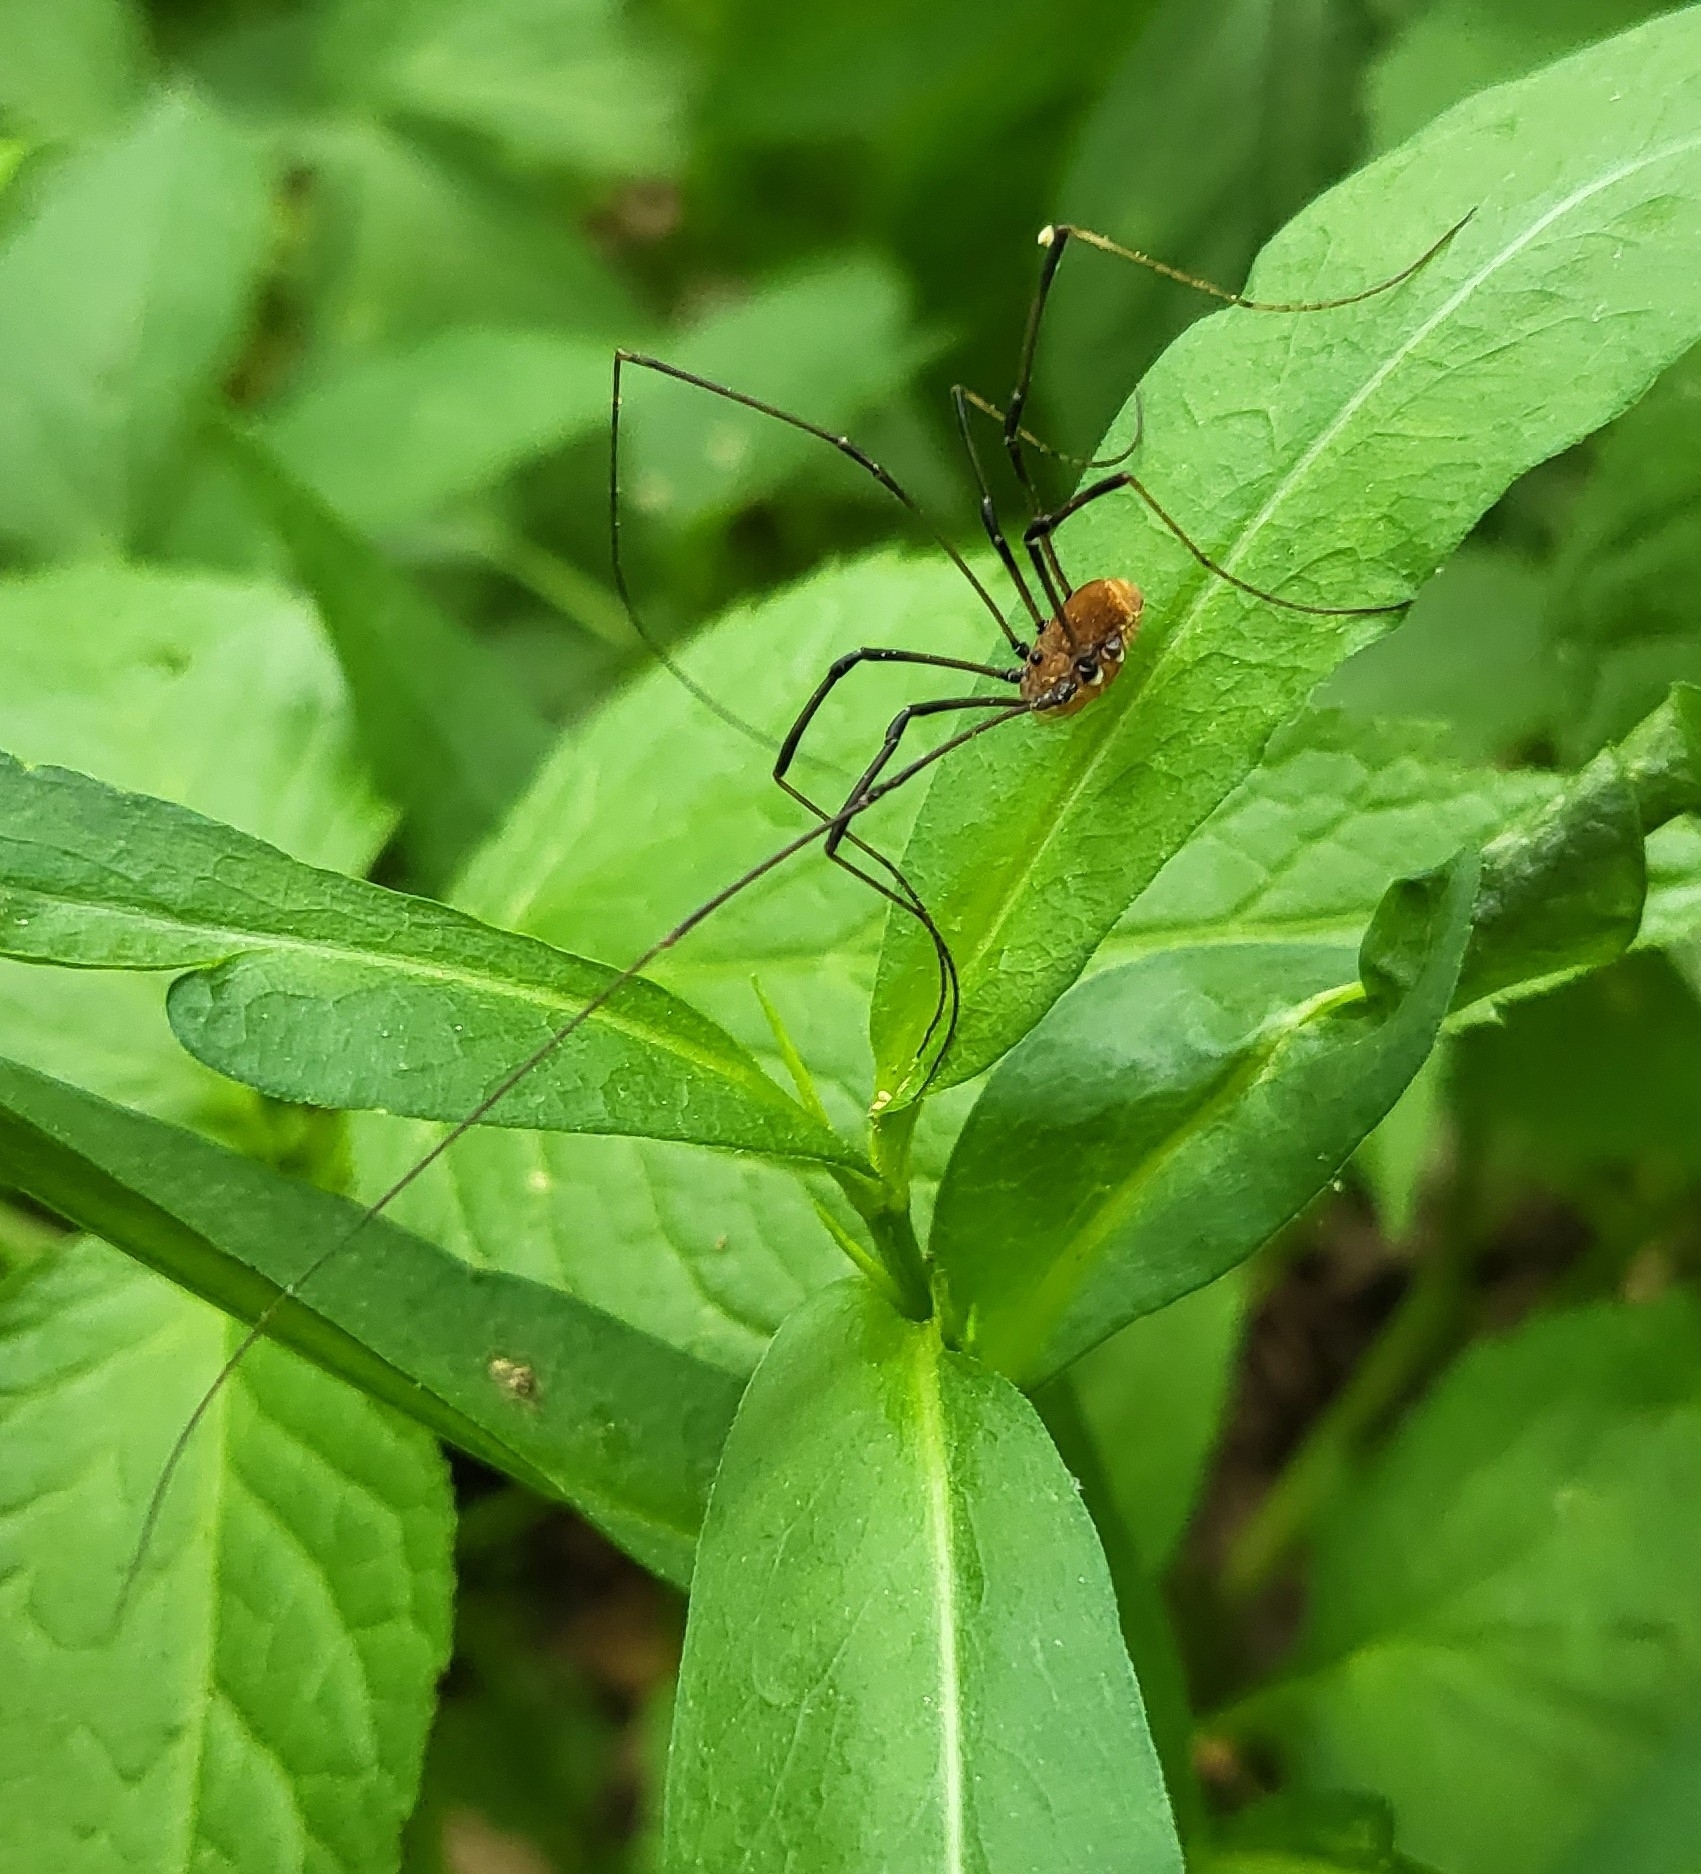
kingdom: Animalia
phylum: Arthropoda
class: Arachnida
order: Opiliones
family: Sclerosomatidae
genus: Leiobunum
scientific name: Leiobunum verrucosum
